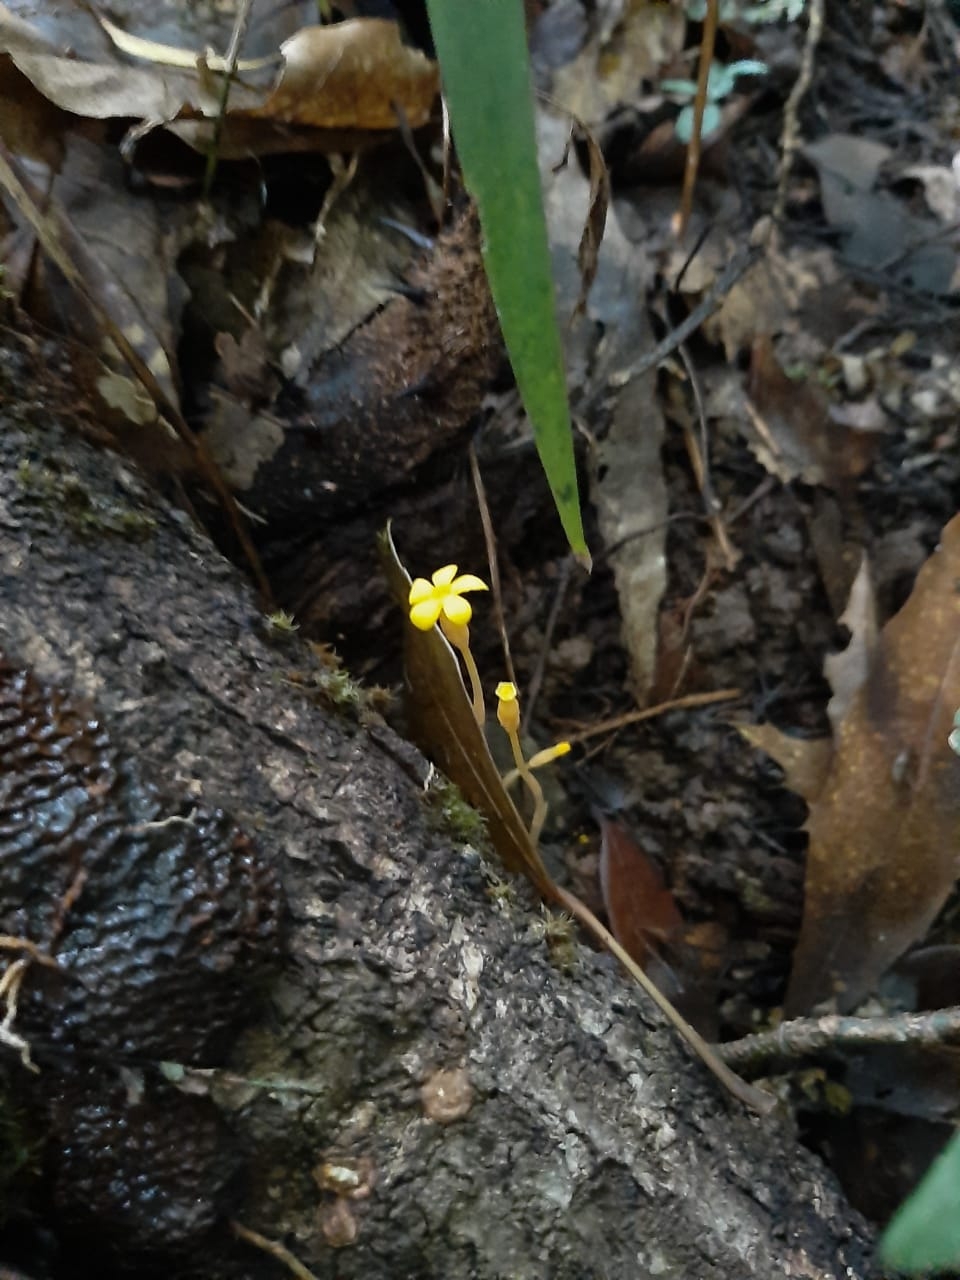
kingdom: Plantae
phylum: Tracheophyta
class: Magnoliopsida
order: Gentianales
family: Gentianaceae
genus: Voyria
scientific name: Voyria flavescens
